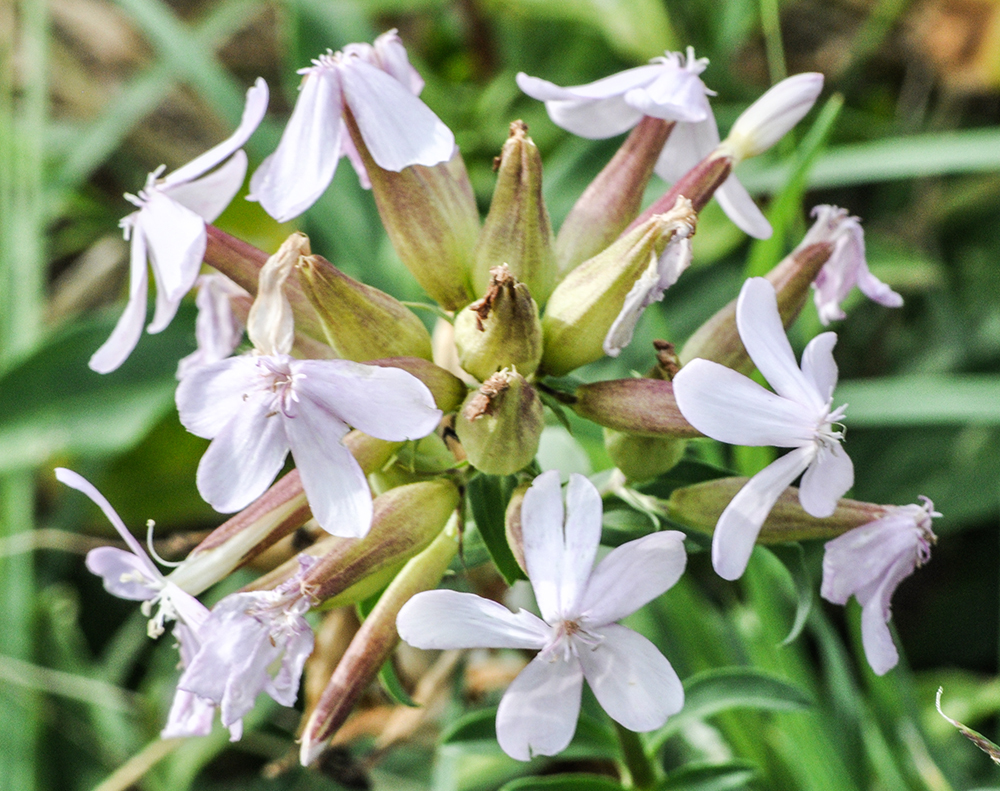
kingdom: Plantae
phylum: Tracheophyta
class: Magnoliopsida
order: Caryophyllales
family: Caryophyllaceae
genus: Saponaria
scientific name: Saponaria officinalis
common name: Soapwort
